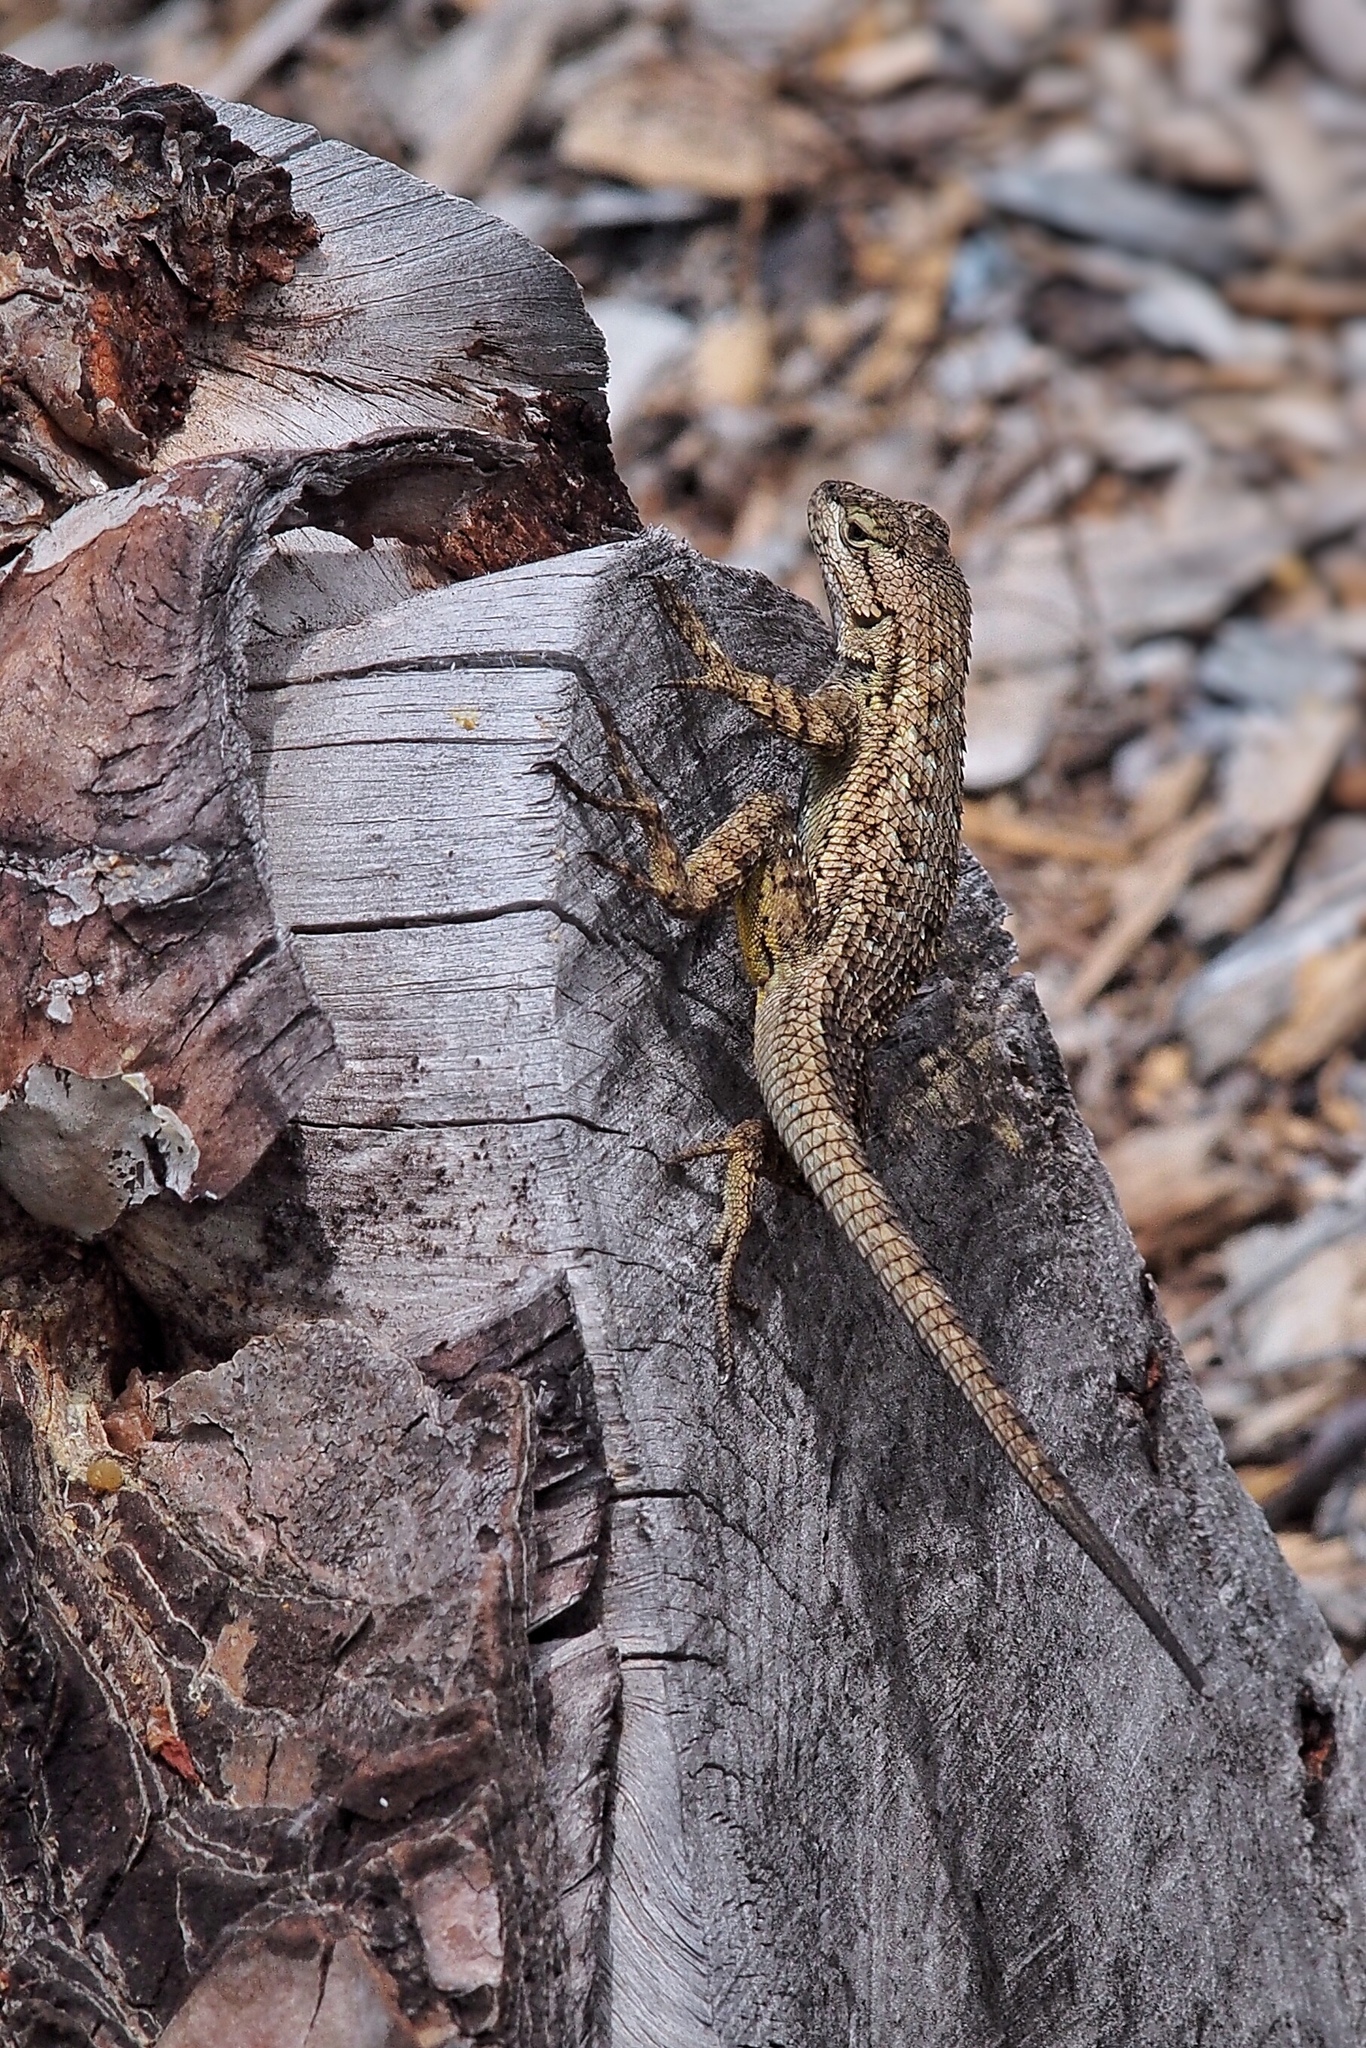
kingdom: Animalia
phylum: Chordata
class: Squamata
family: Phrynosomatidae
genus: Sceloporus
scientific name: Sceloporus occidentalis
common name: Western fence lizard
